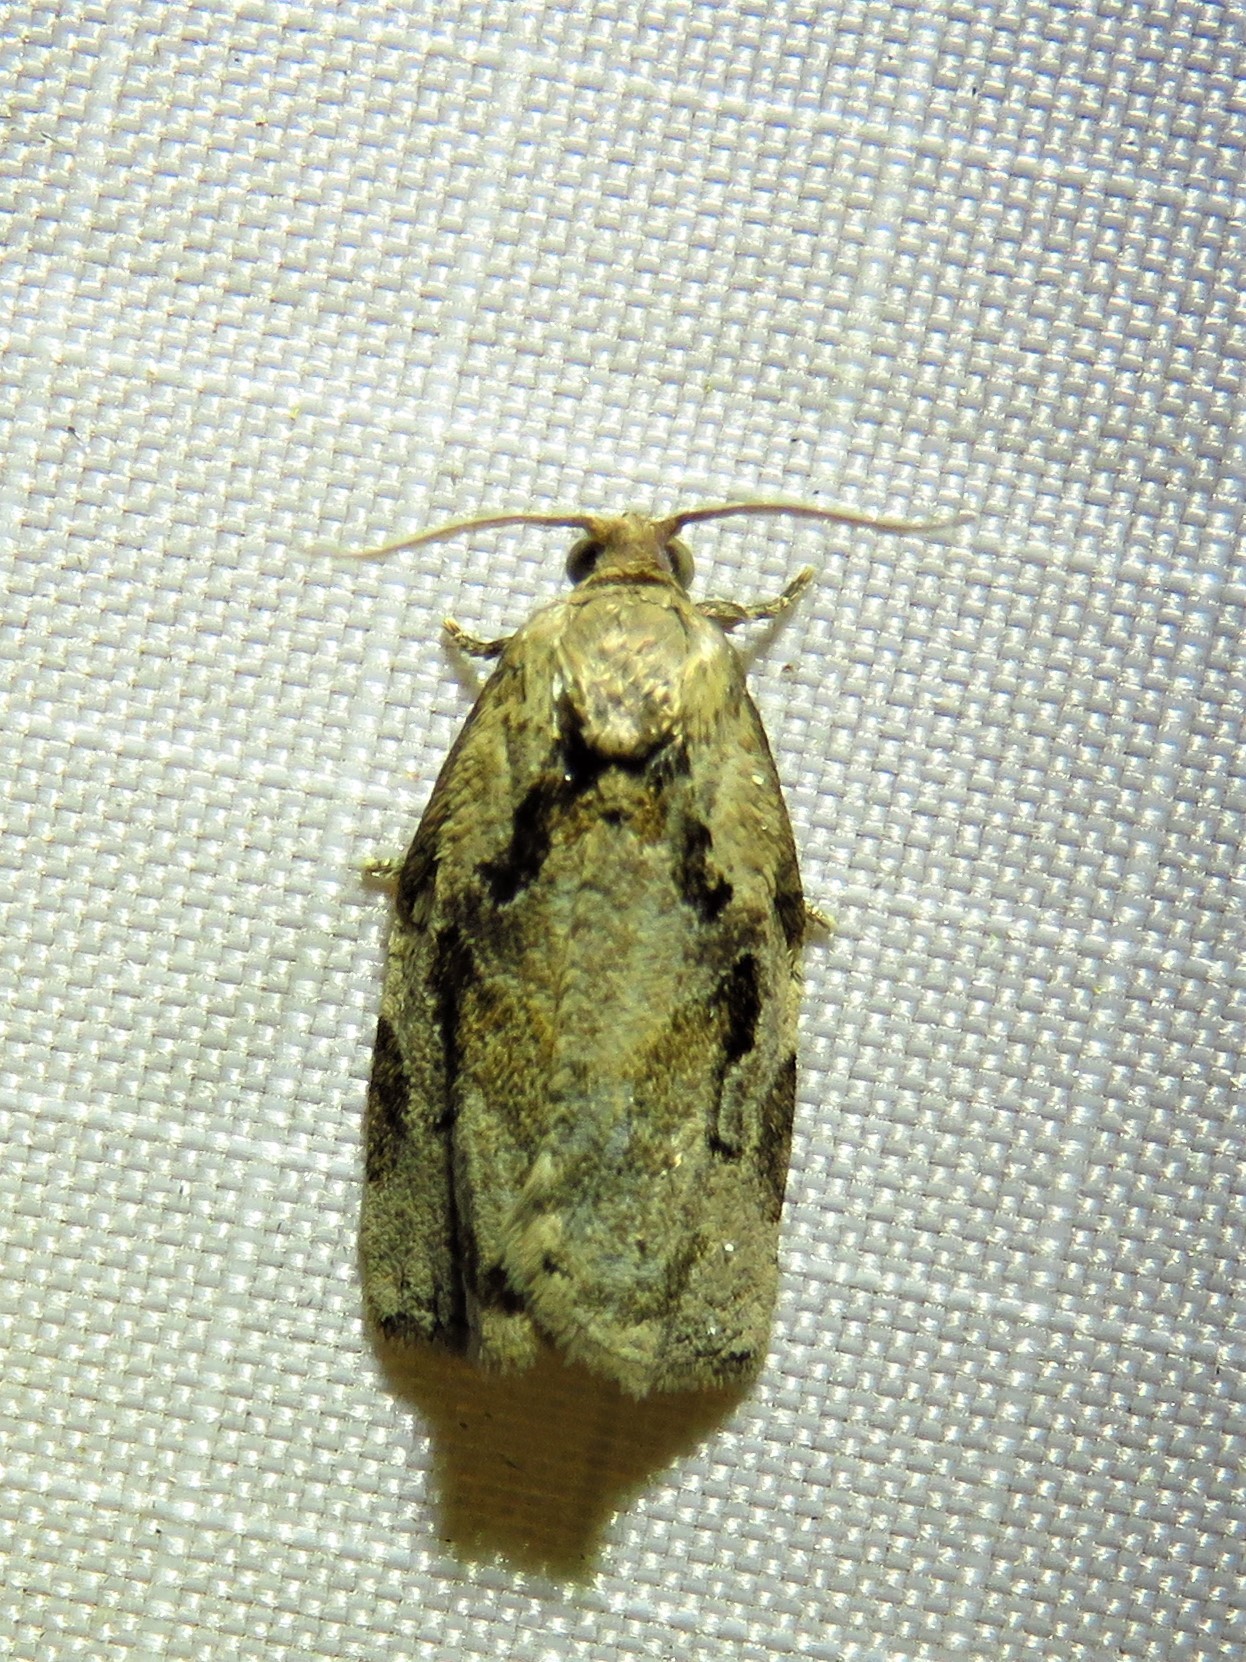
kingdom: Animalia
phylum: Arthropoda
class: Insecta
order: Lepidoptera
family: Tortricidae
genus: Archips
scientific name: Archips grisea
